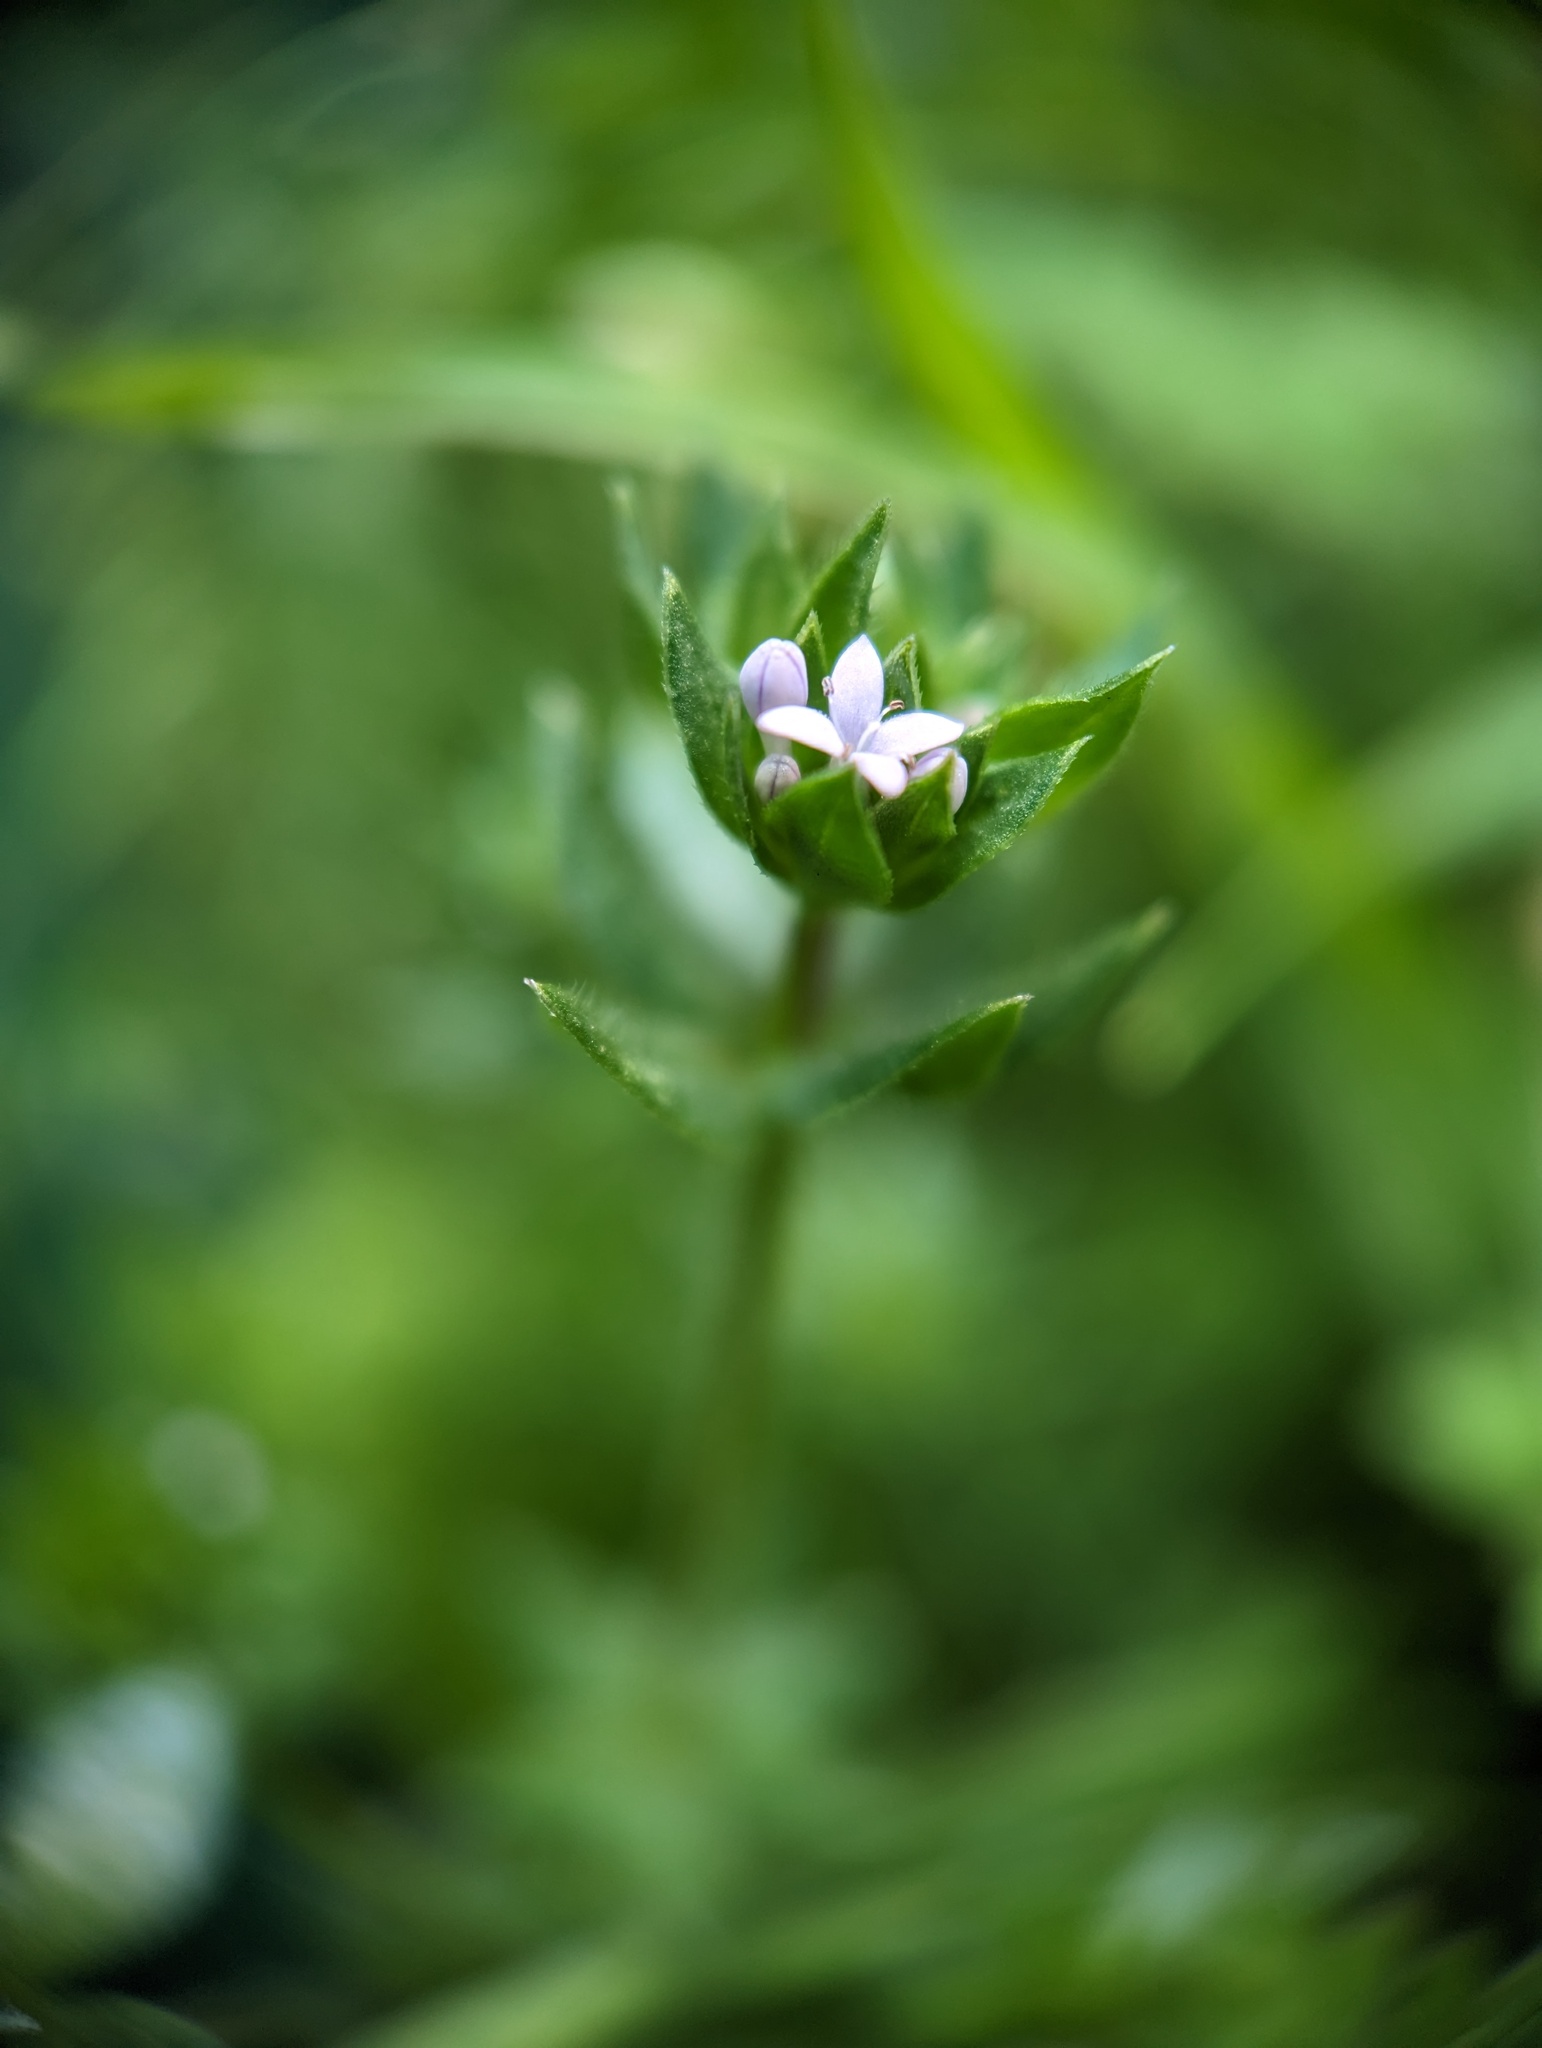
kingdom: Plantae
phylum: Tracheophyta
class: Magnoliopsida
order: Gentianales
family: Rubiaceae
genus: Sherardia
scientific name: Sherardia arvensis
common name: Field madder
